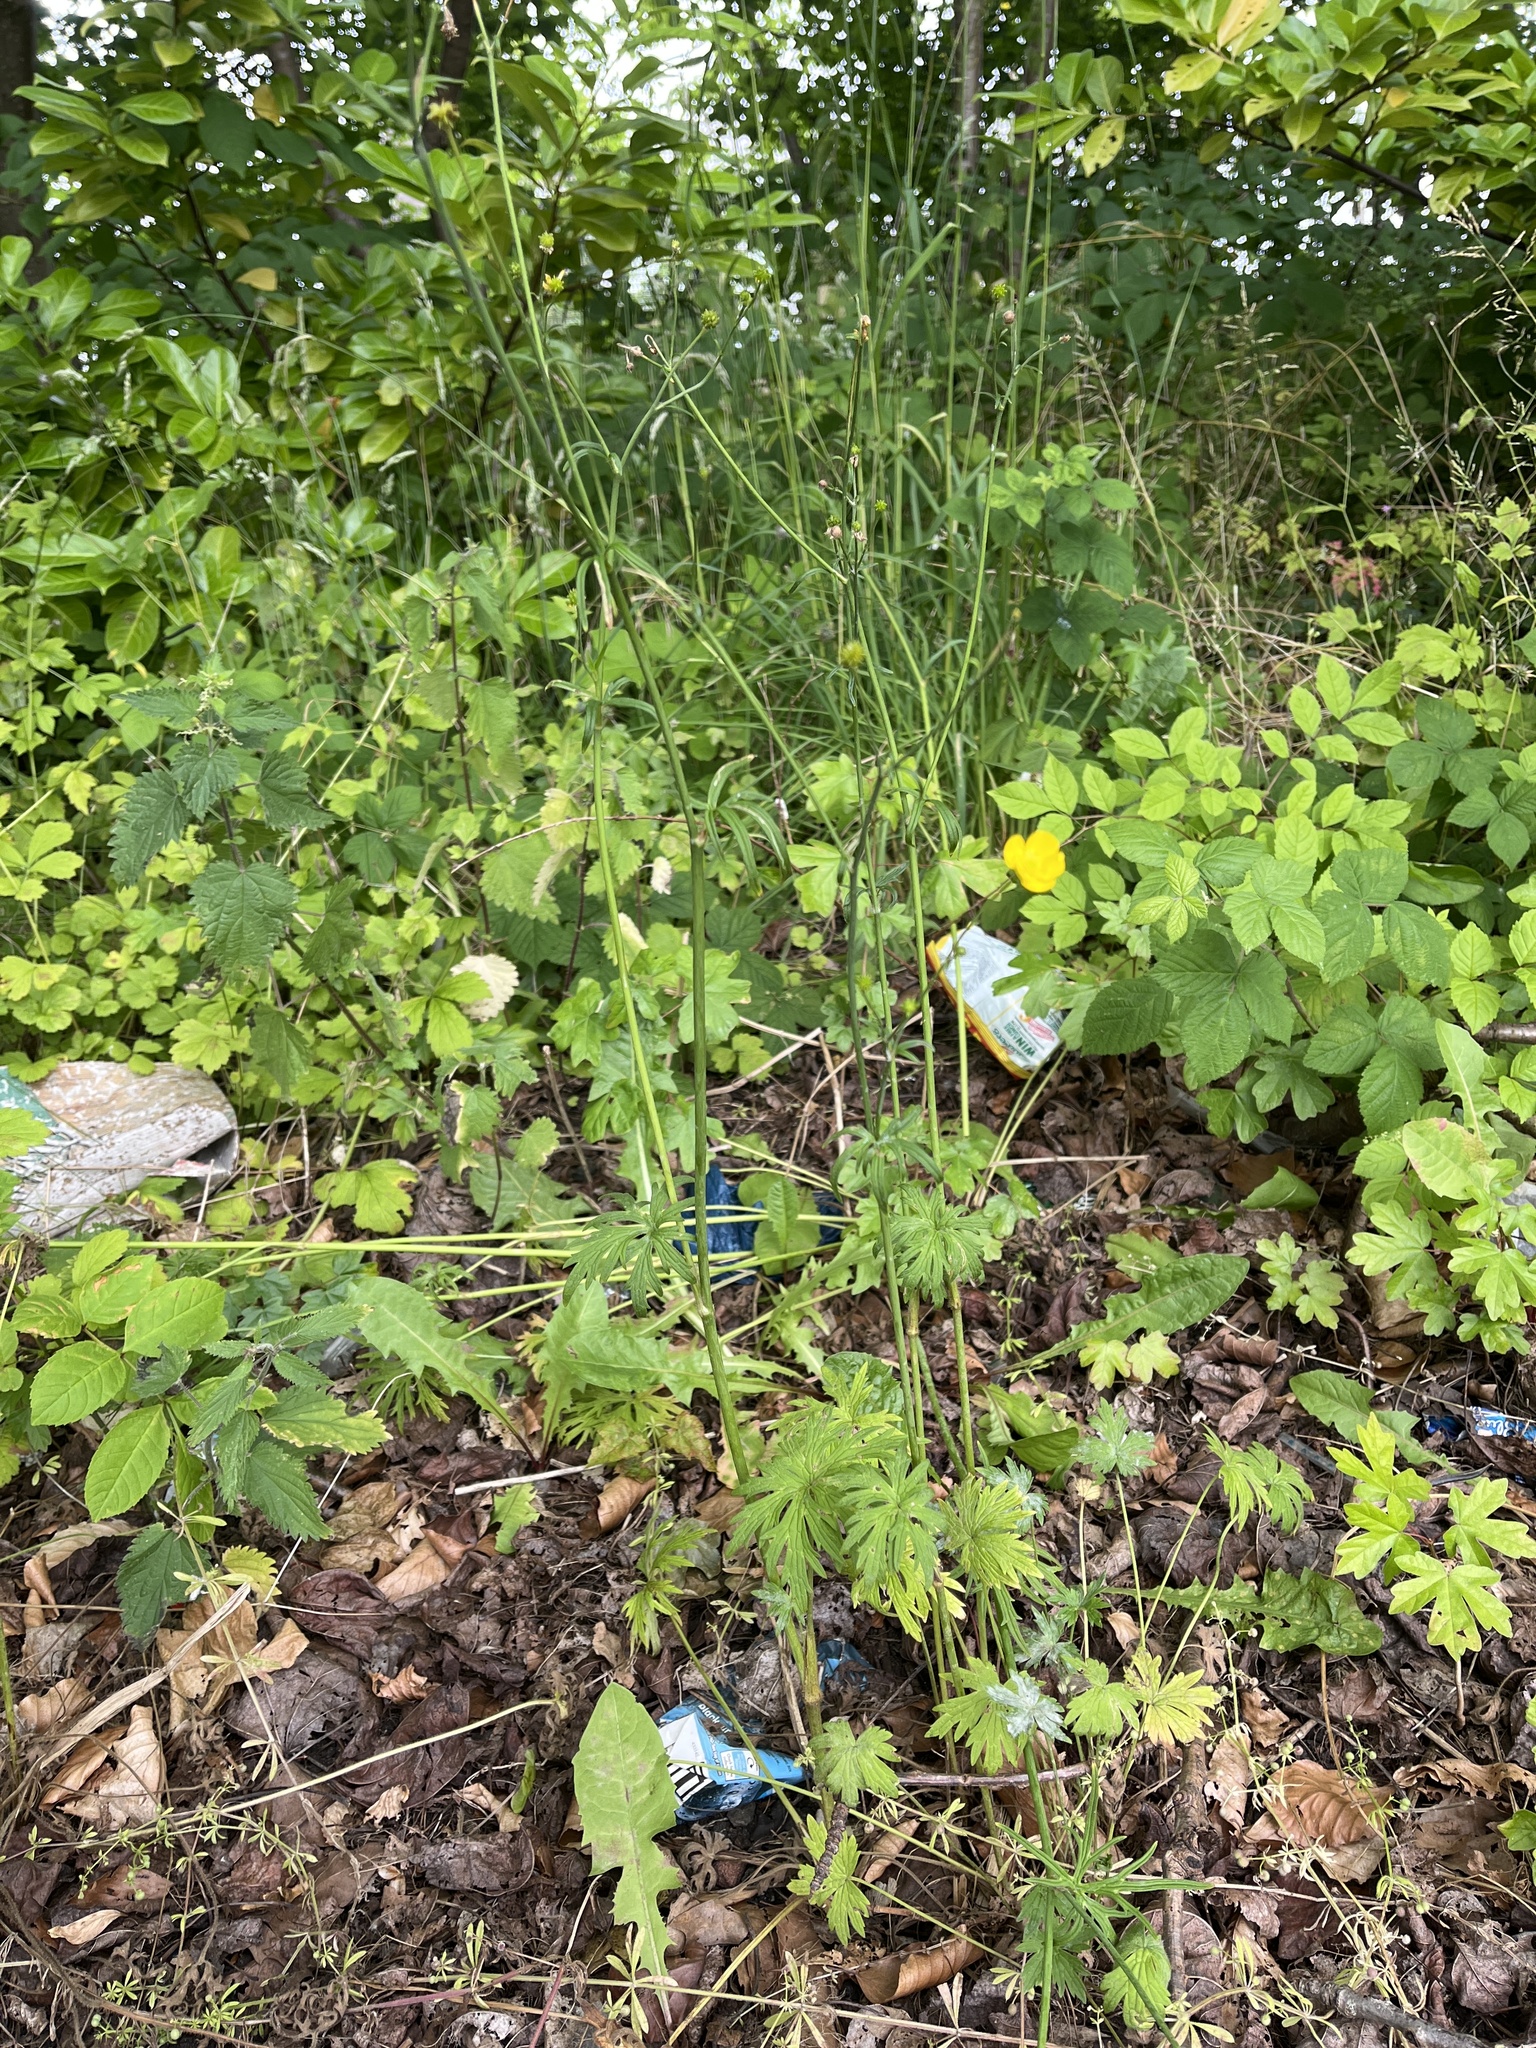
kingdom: Plantae
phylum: Tracheophyta
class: Magnoliopsida
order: Ranunculales
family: Ranunculaceae
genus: Ranunculus
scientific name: Ranunculus acris
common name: Meadow buttercup
